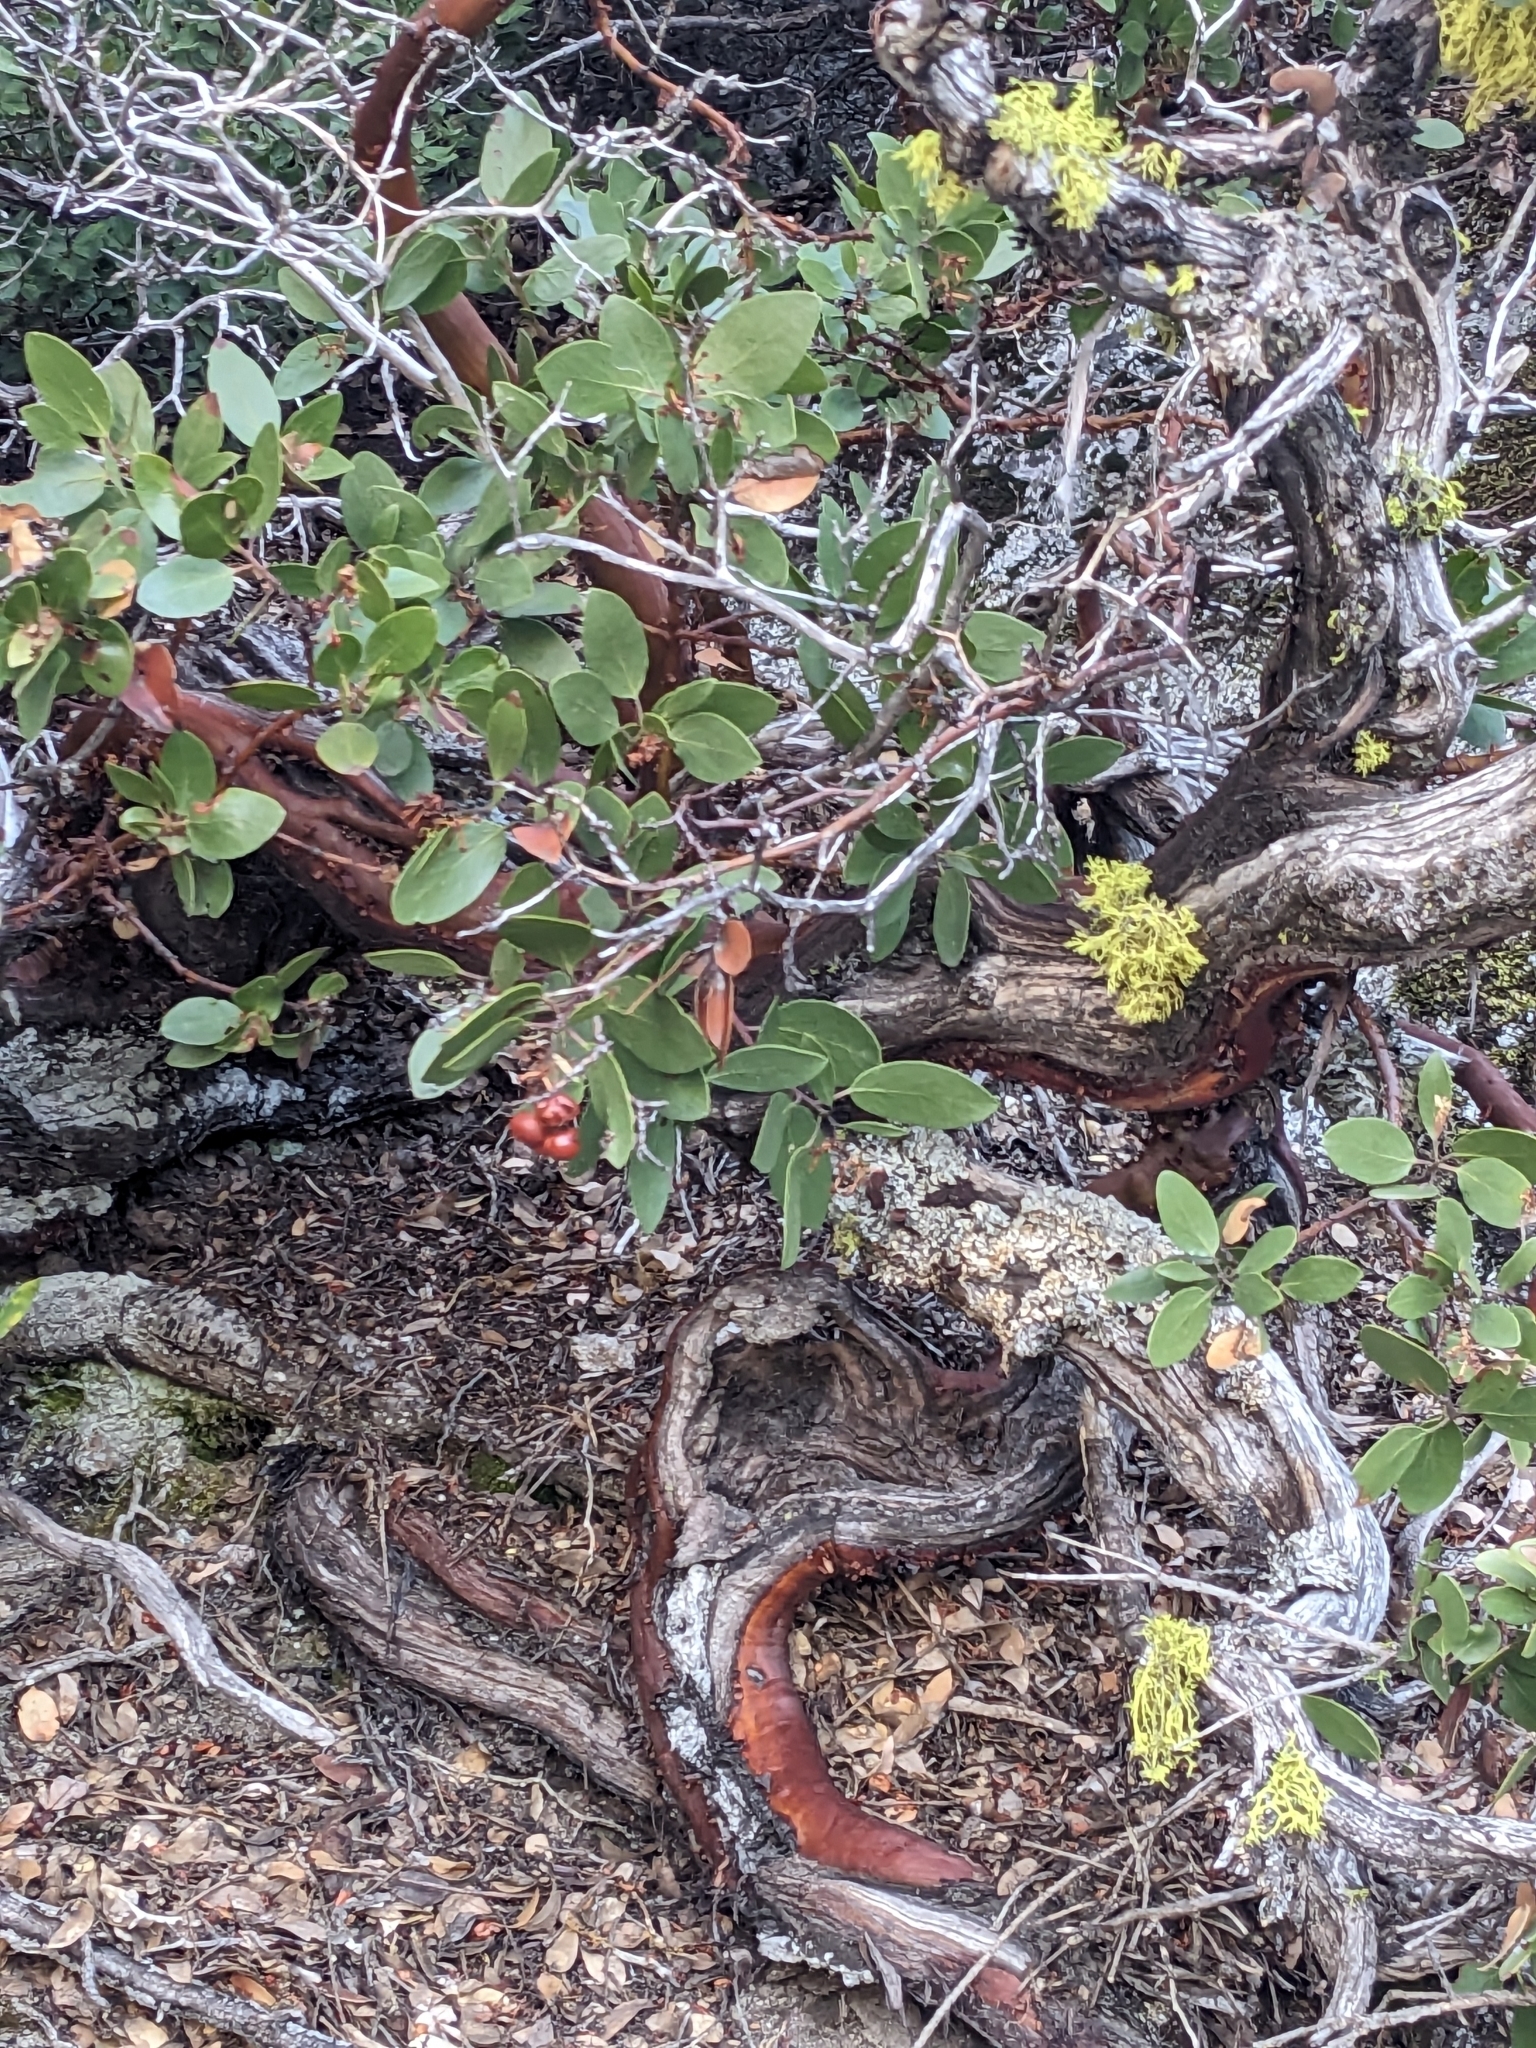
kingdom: Plantae
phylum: Tracheophyta
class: Magnoliopsida
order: Ericales
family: Ericaceae
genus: Arctostaphylos
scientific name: Arctostaphylos patula
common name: Green-leaf manzanita
